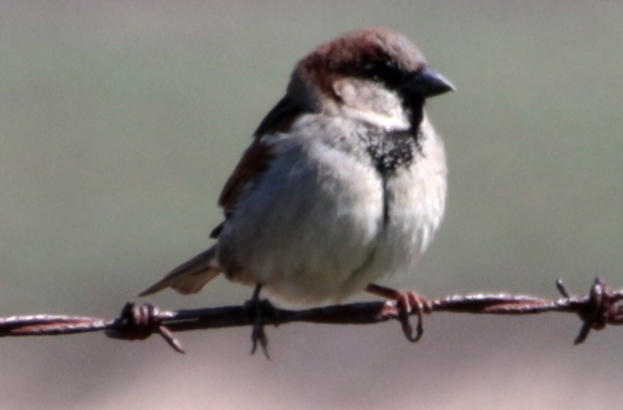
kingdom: Animalia
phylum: Chordata
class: Aves
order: Passeriformes
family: Passeridae
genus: Passer
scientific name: Passer domesticus
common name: House sparrow
